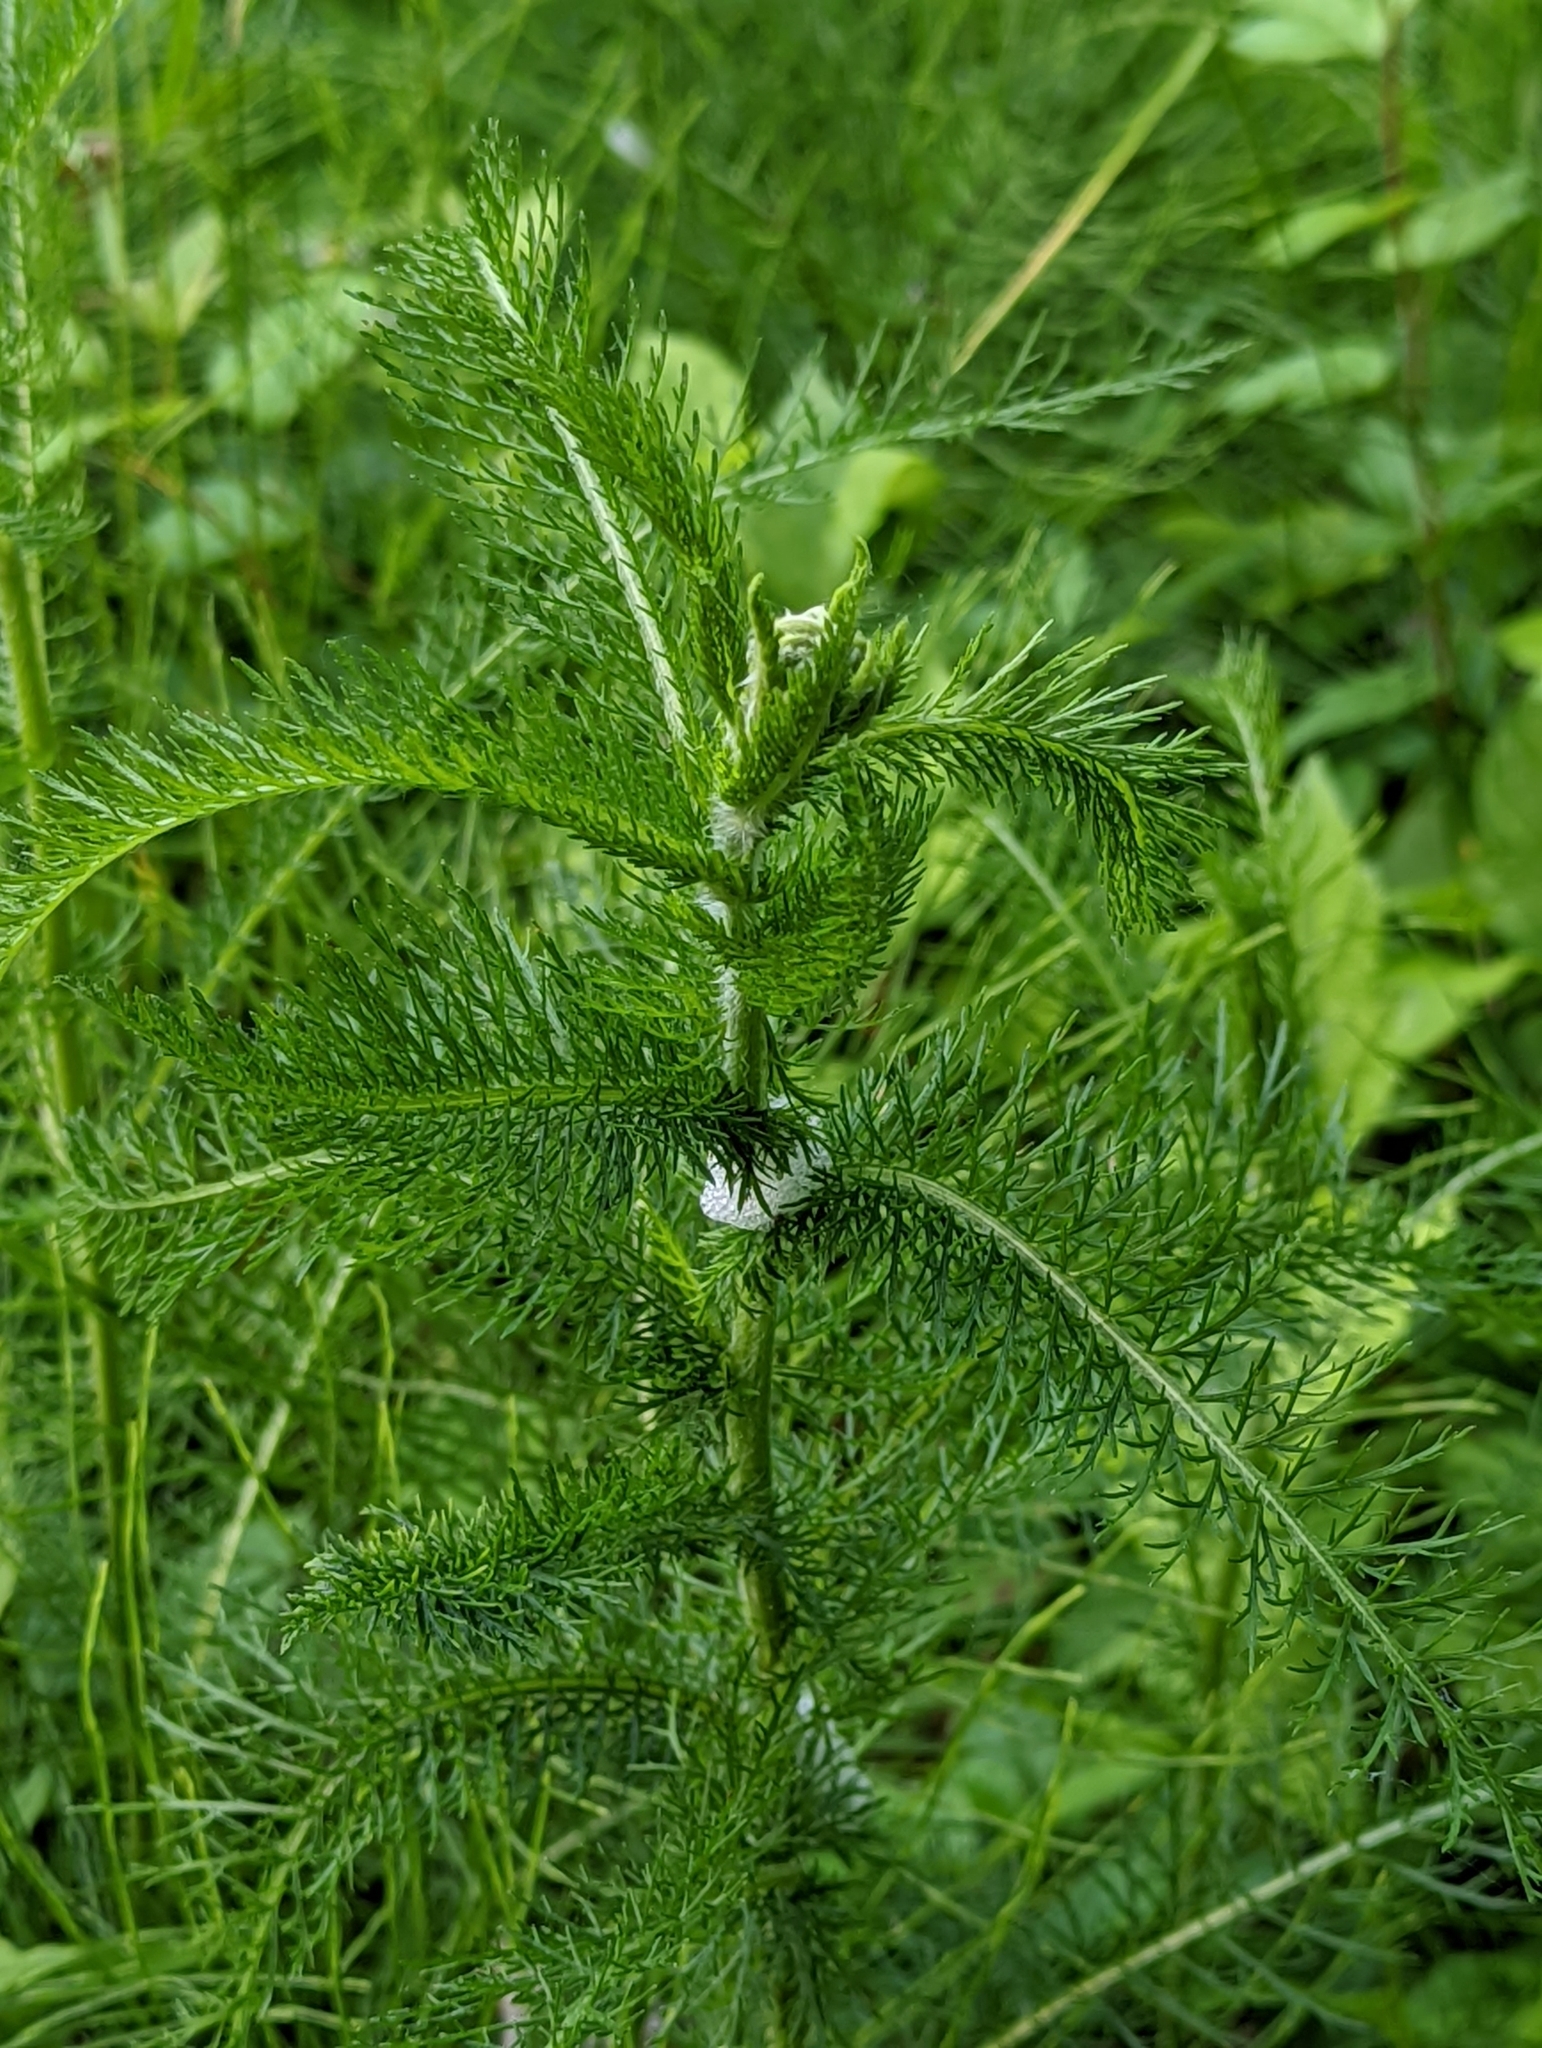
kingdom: Plantae
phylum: Tracheophyta
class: Magnoliopsida
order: Asterales
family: Asteraceae
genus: Achillea
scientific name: Achillea millefolium
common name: Yarrow
